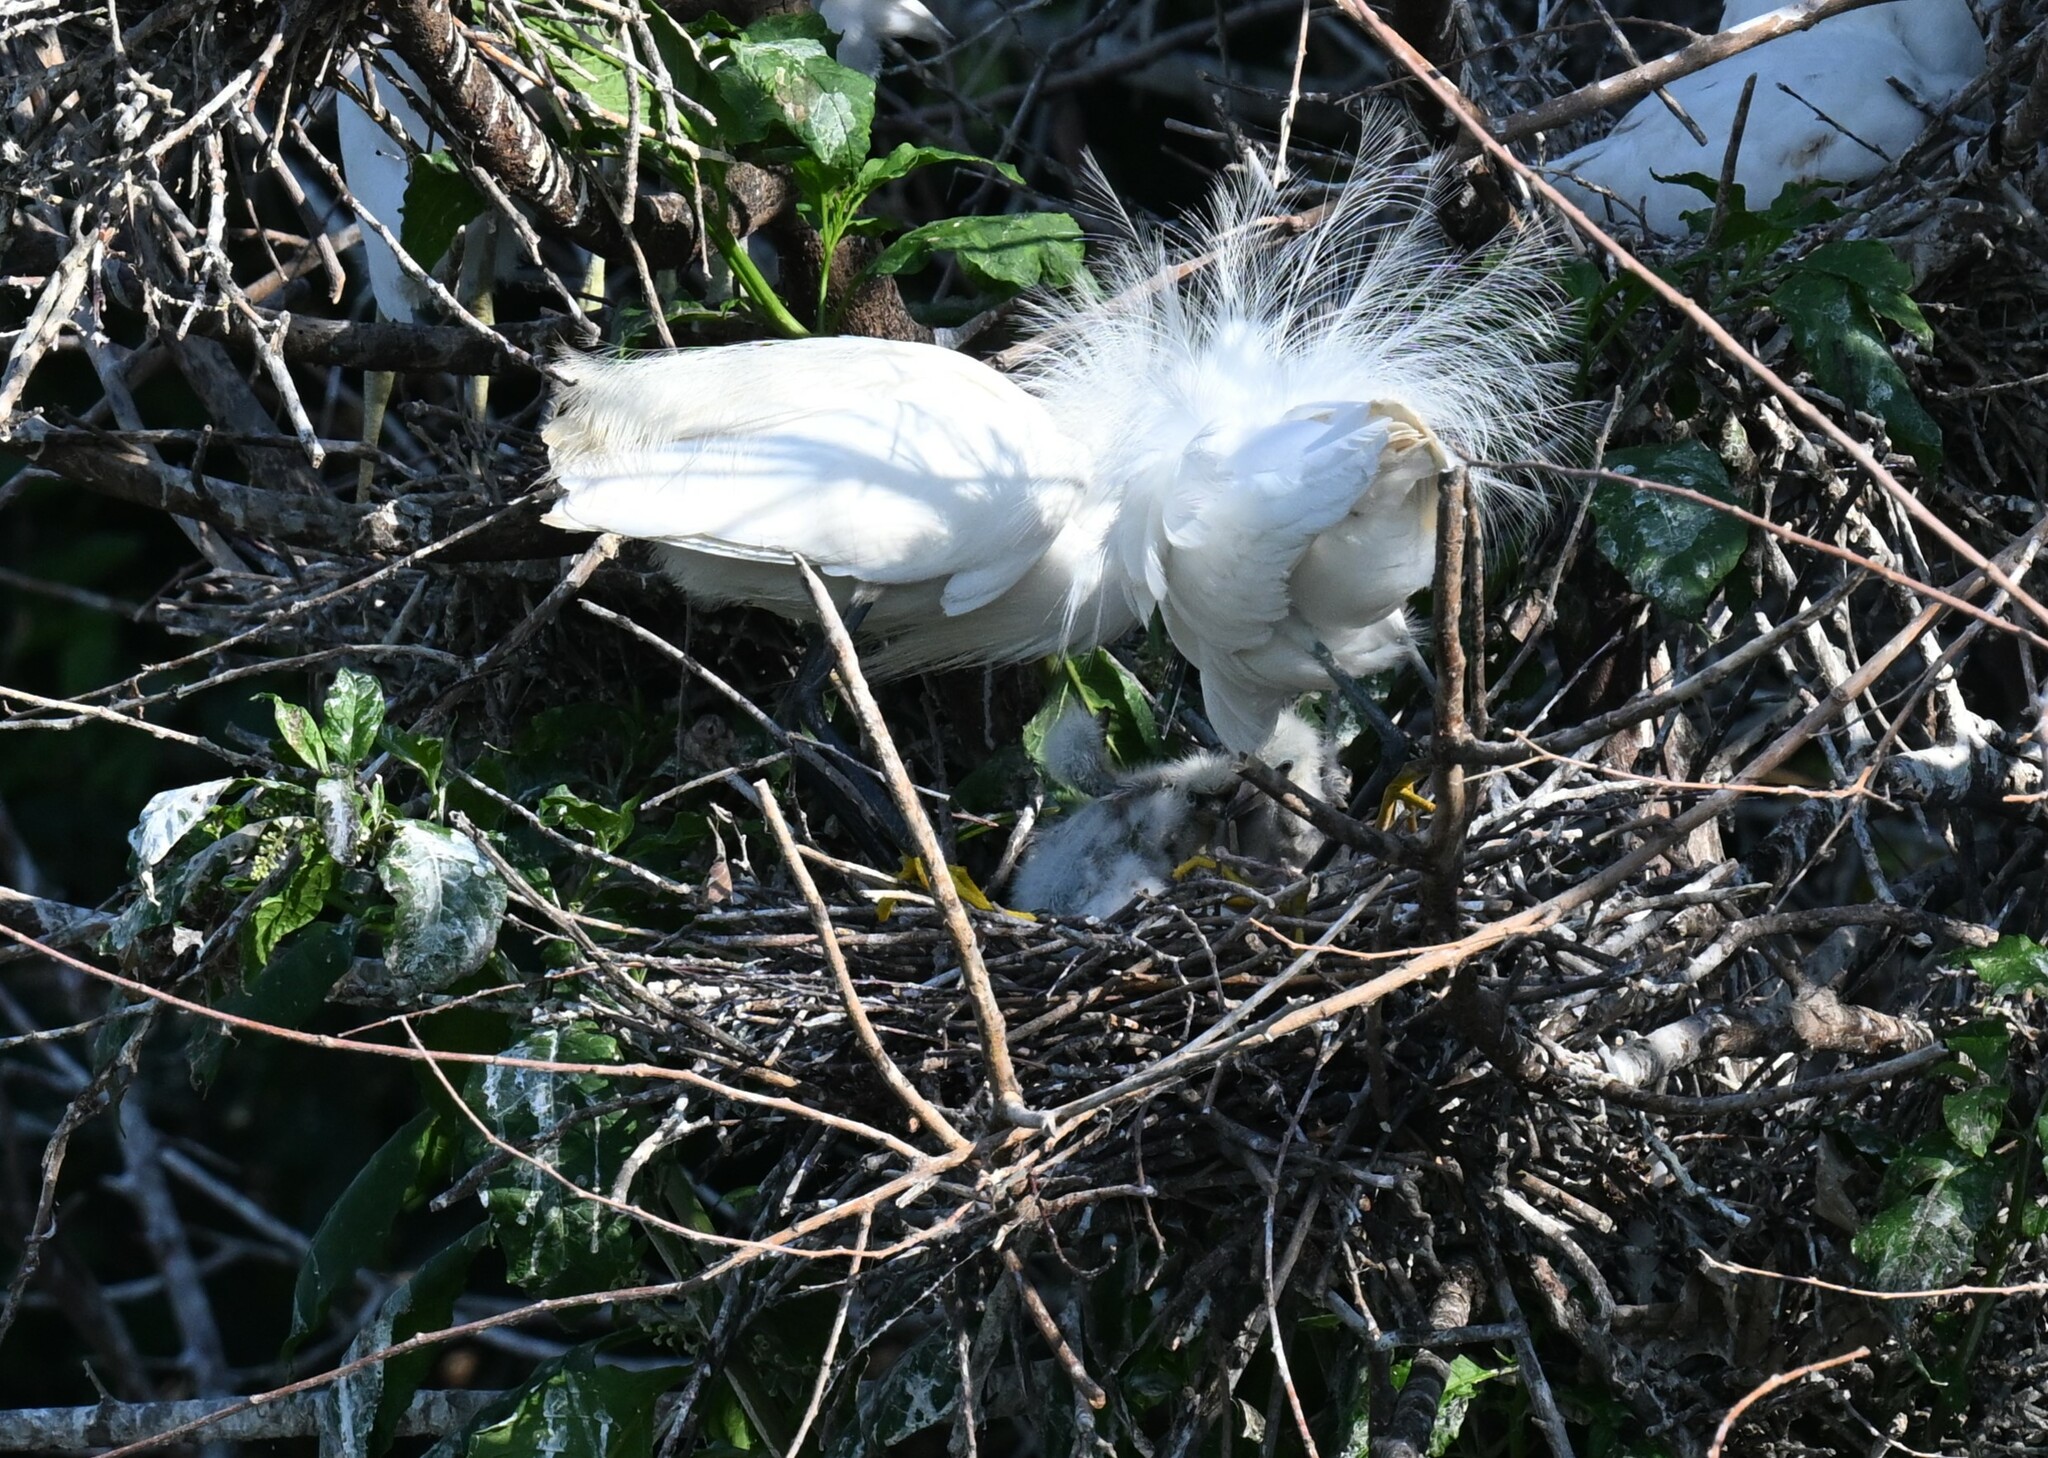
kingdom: Animalia
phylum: Chordata
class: Aves
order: Pelecaniformes
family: Ardeidae
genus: Egretta
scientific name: Egretta thula
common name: Snowy egret
